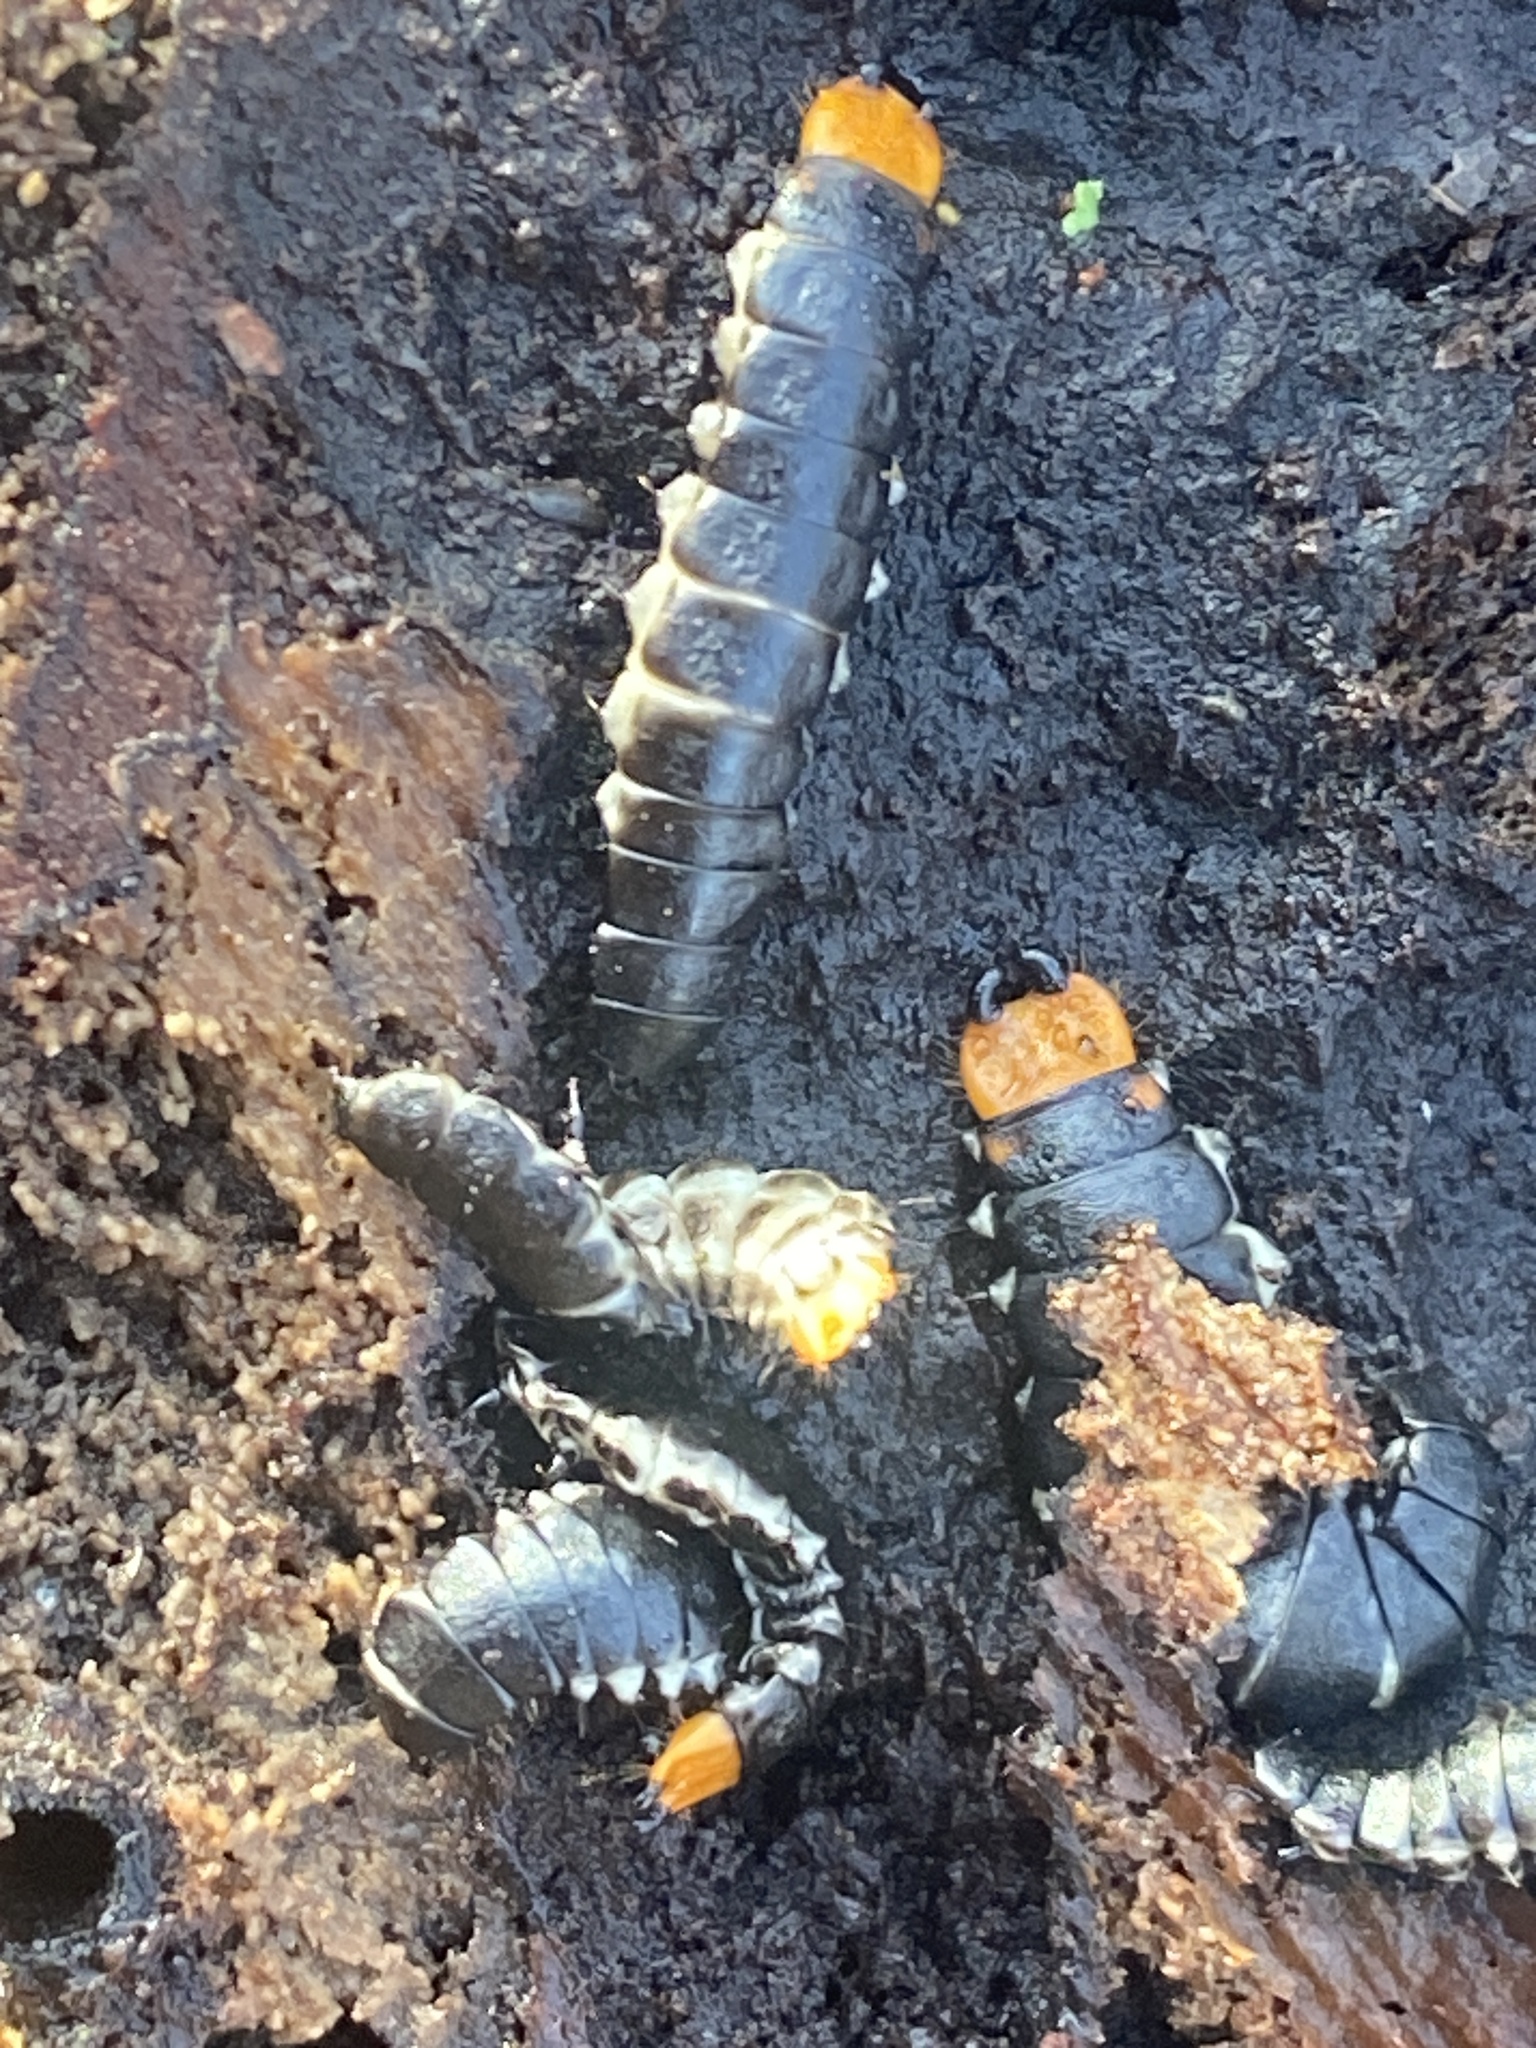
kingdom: Animalia
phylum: Arthropoda
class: Insecta
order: Coleoptera
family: Lycidae
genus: Lygistopterus
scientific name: Lygistopterus sanguineus
